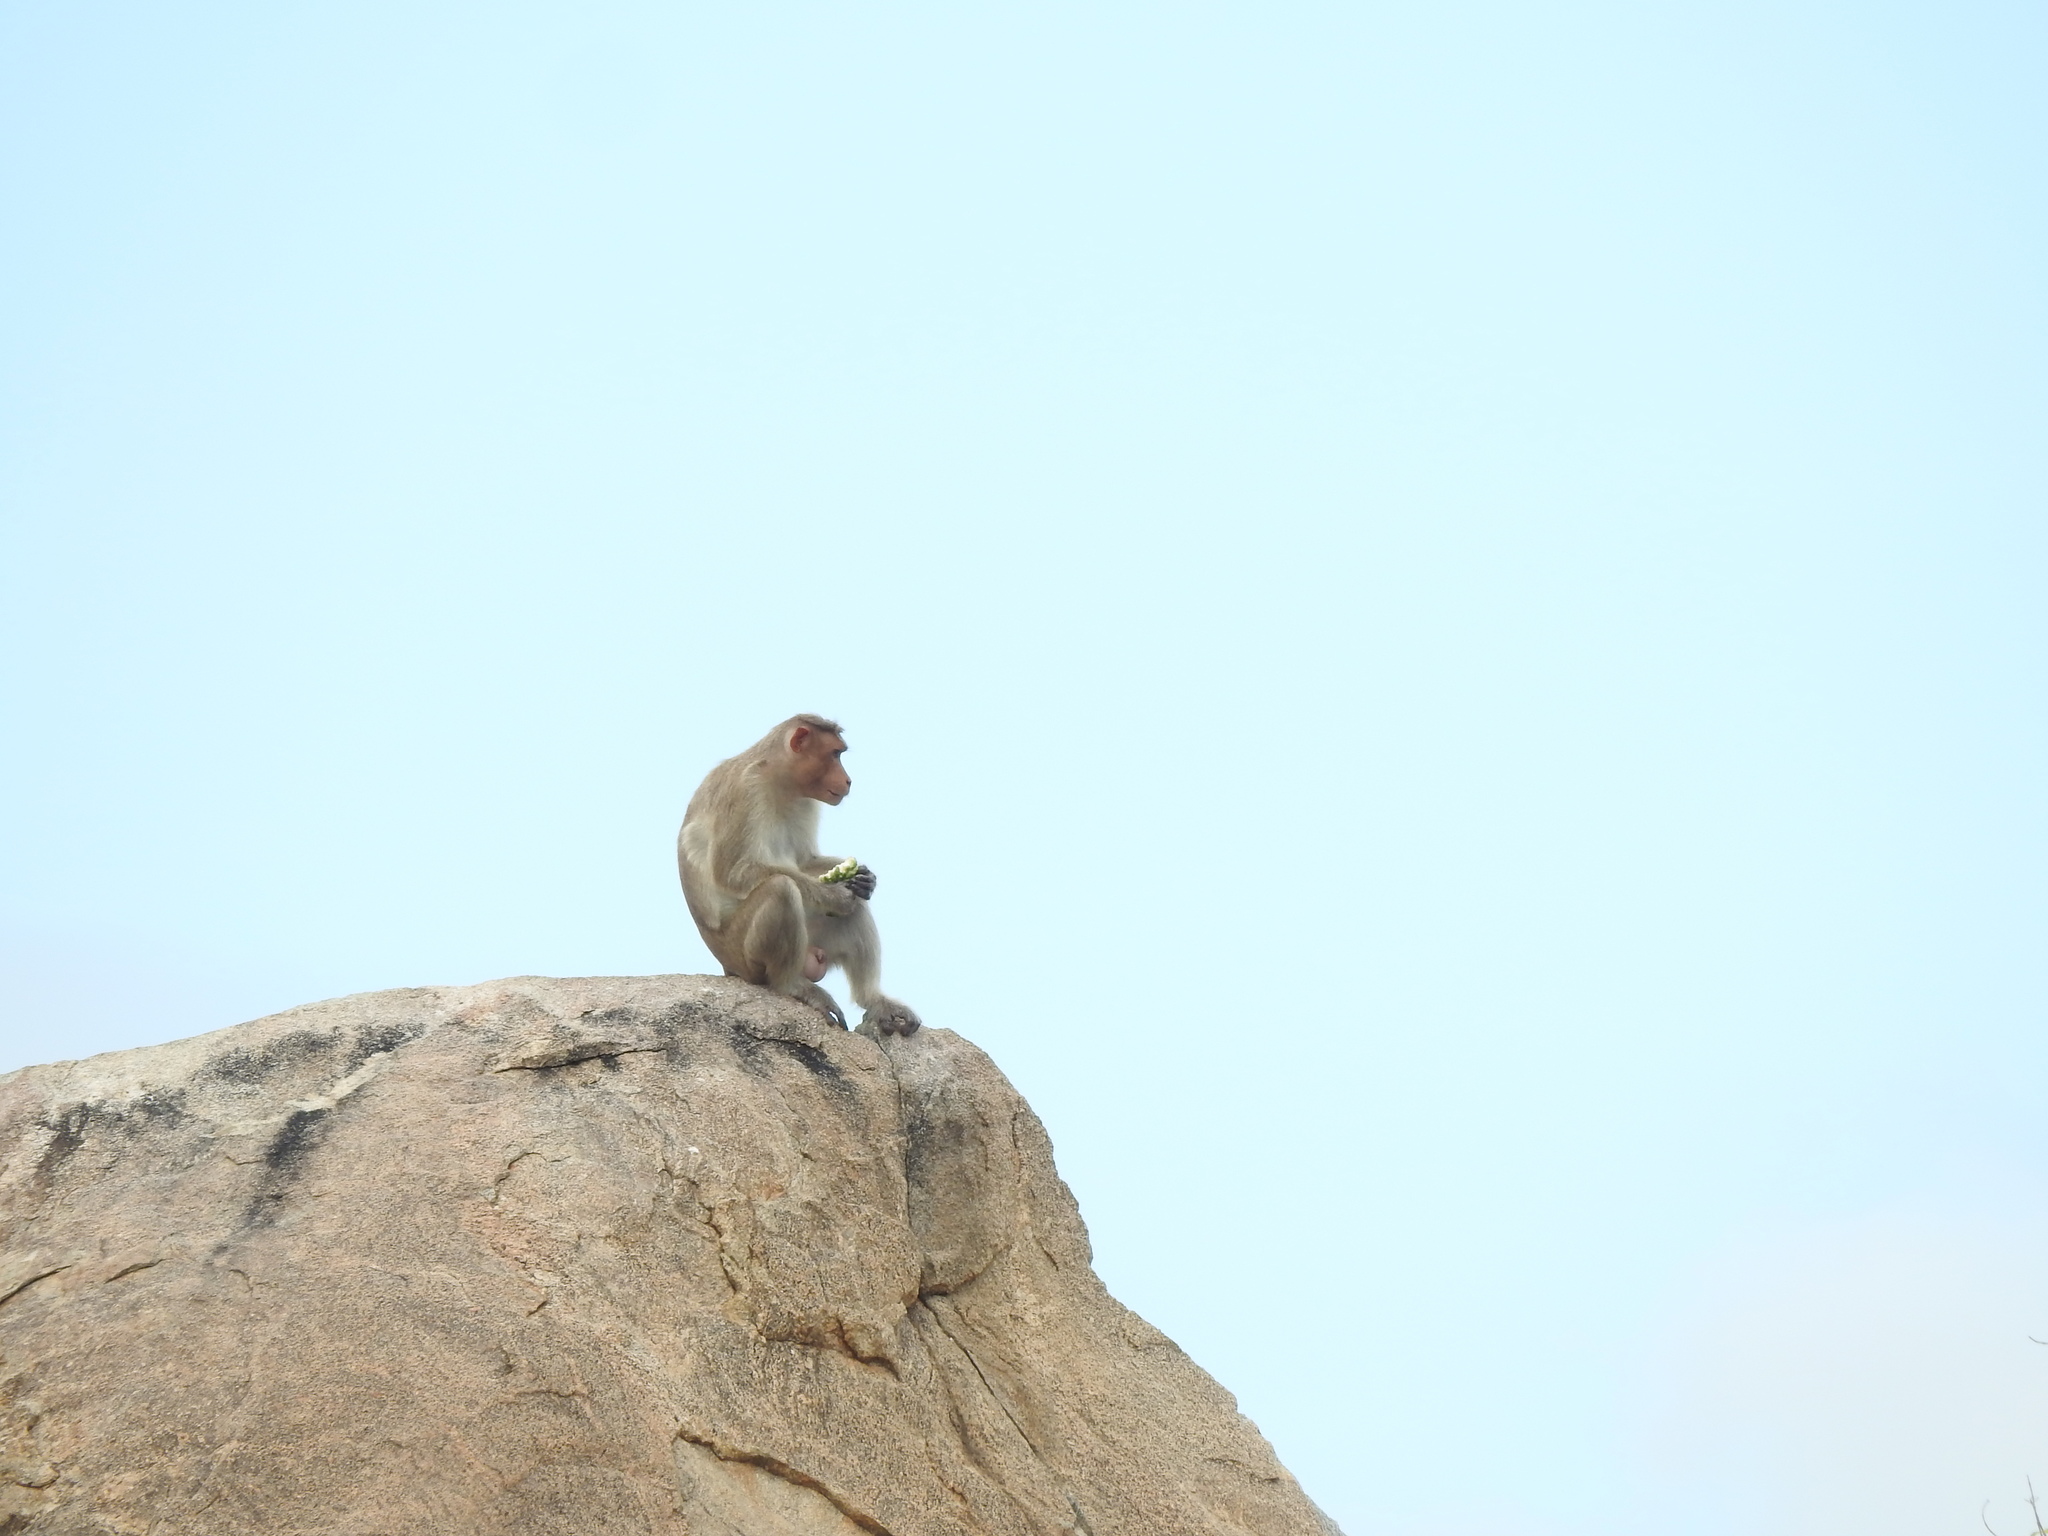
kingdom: Animalia
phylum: Chordata
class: Mammalia
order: Primates
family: Cercopithecidae
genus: Macaca
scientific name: Macaca radiata
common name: Bonnet macaque
